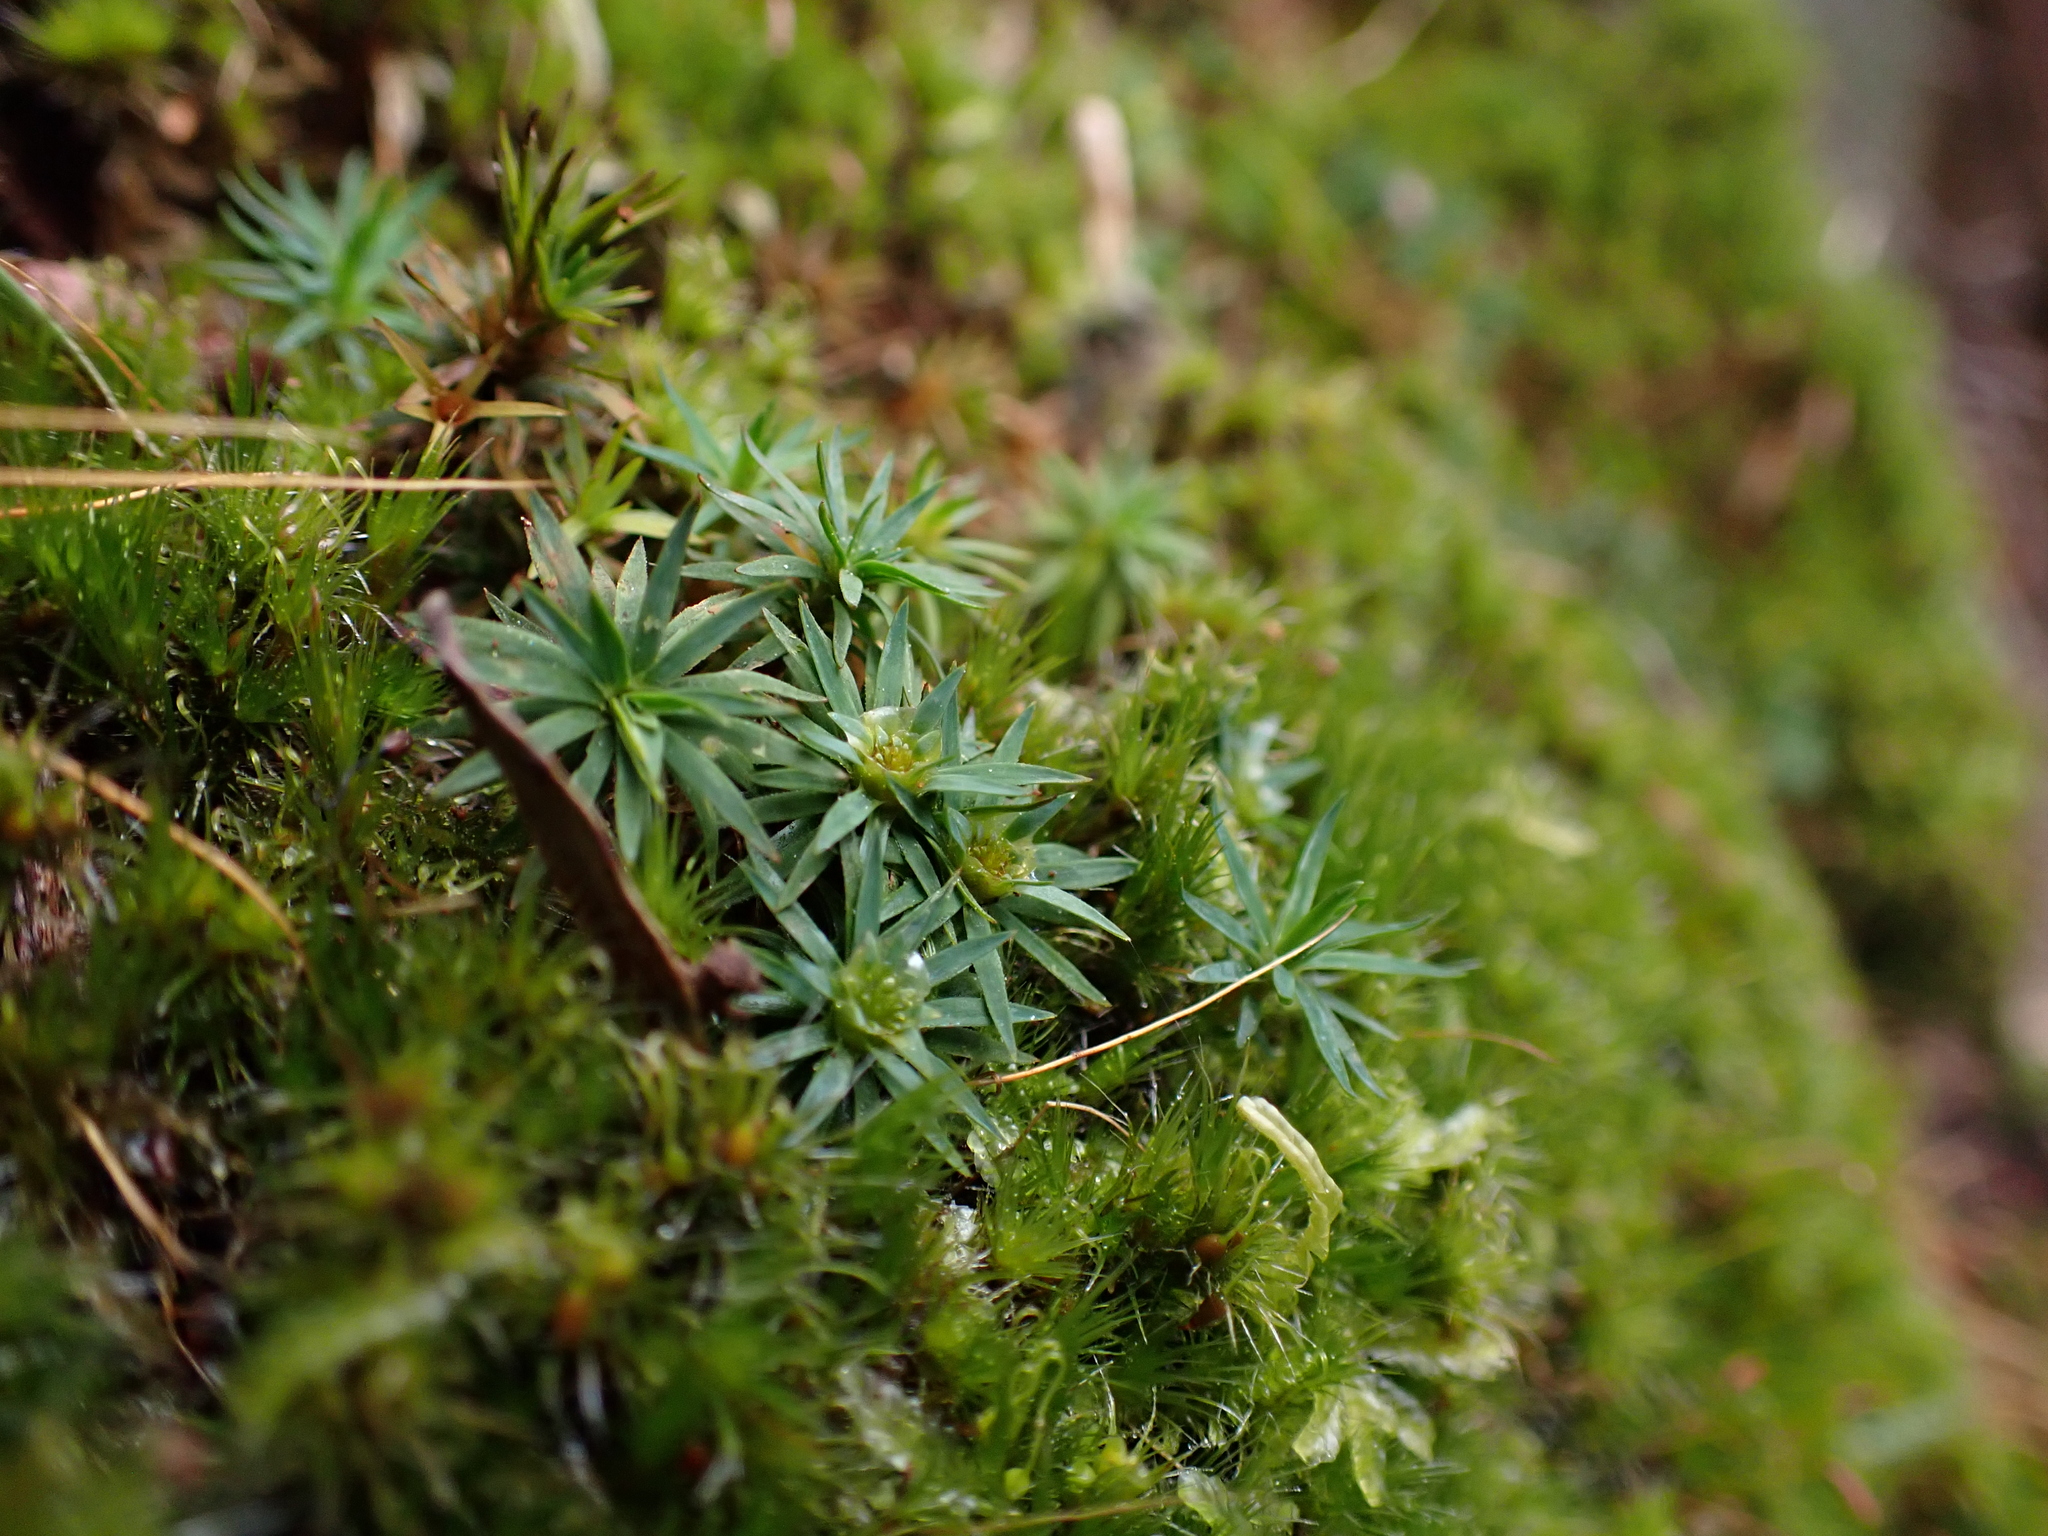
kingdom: Plantae
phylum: Bryophyta
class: Polytrichopsida
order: Polytrichales
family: Polytrichaceae
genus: Dawsonia
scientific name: Dawsonia longiseta
